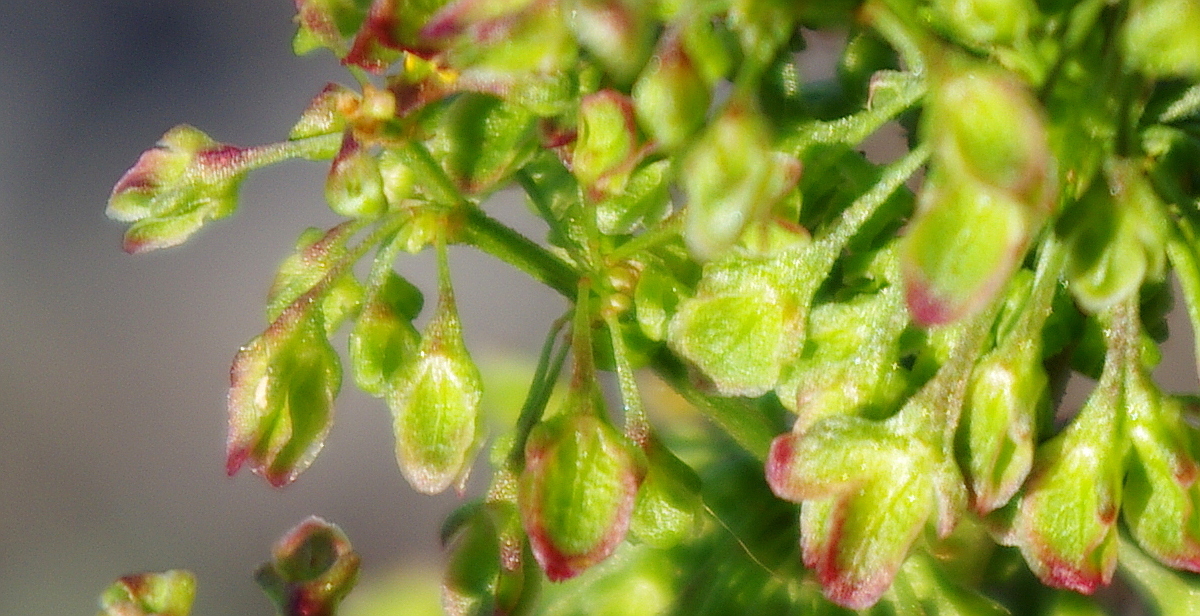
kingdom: Plantae
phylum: Tracheophyta
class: Magnoliopsida
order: Caryophyllales
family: Polygonaceae
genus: Rumex
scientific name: Rumex pseudonatronatus
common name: Field dock
